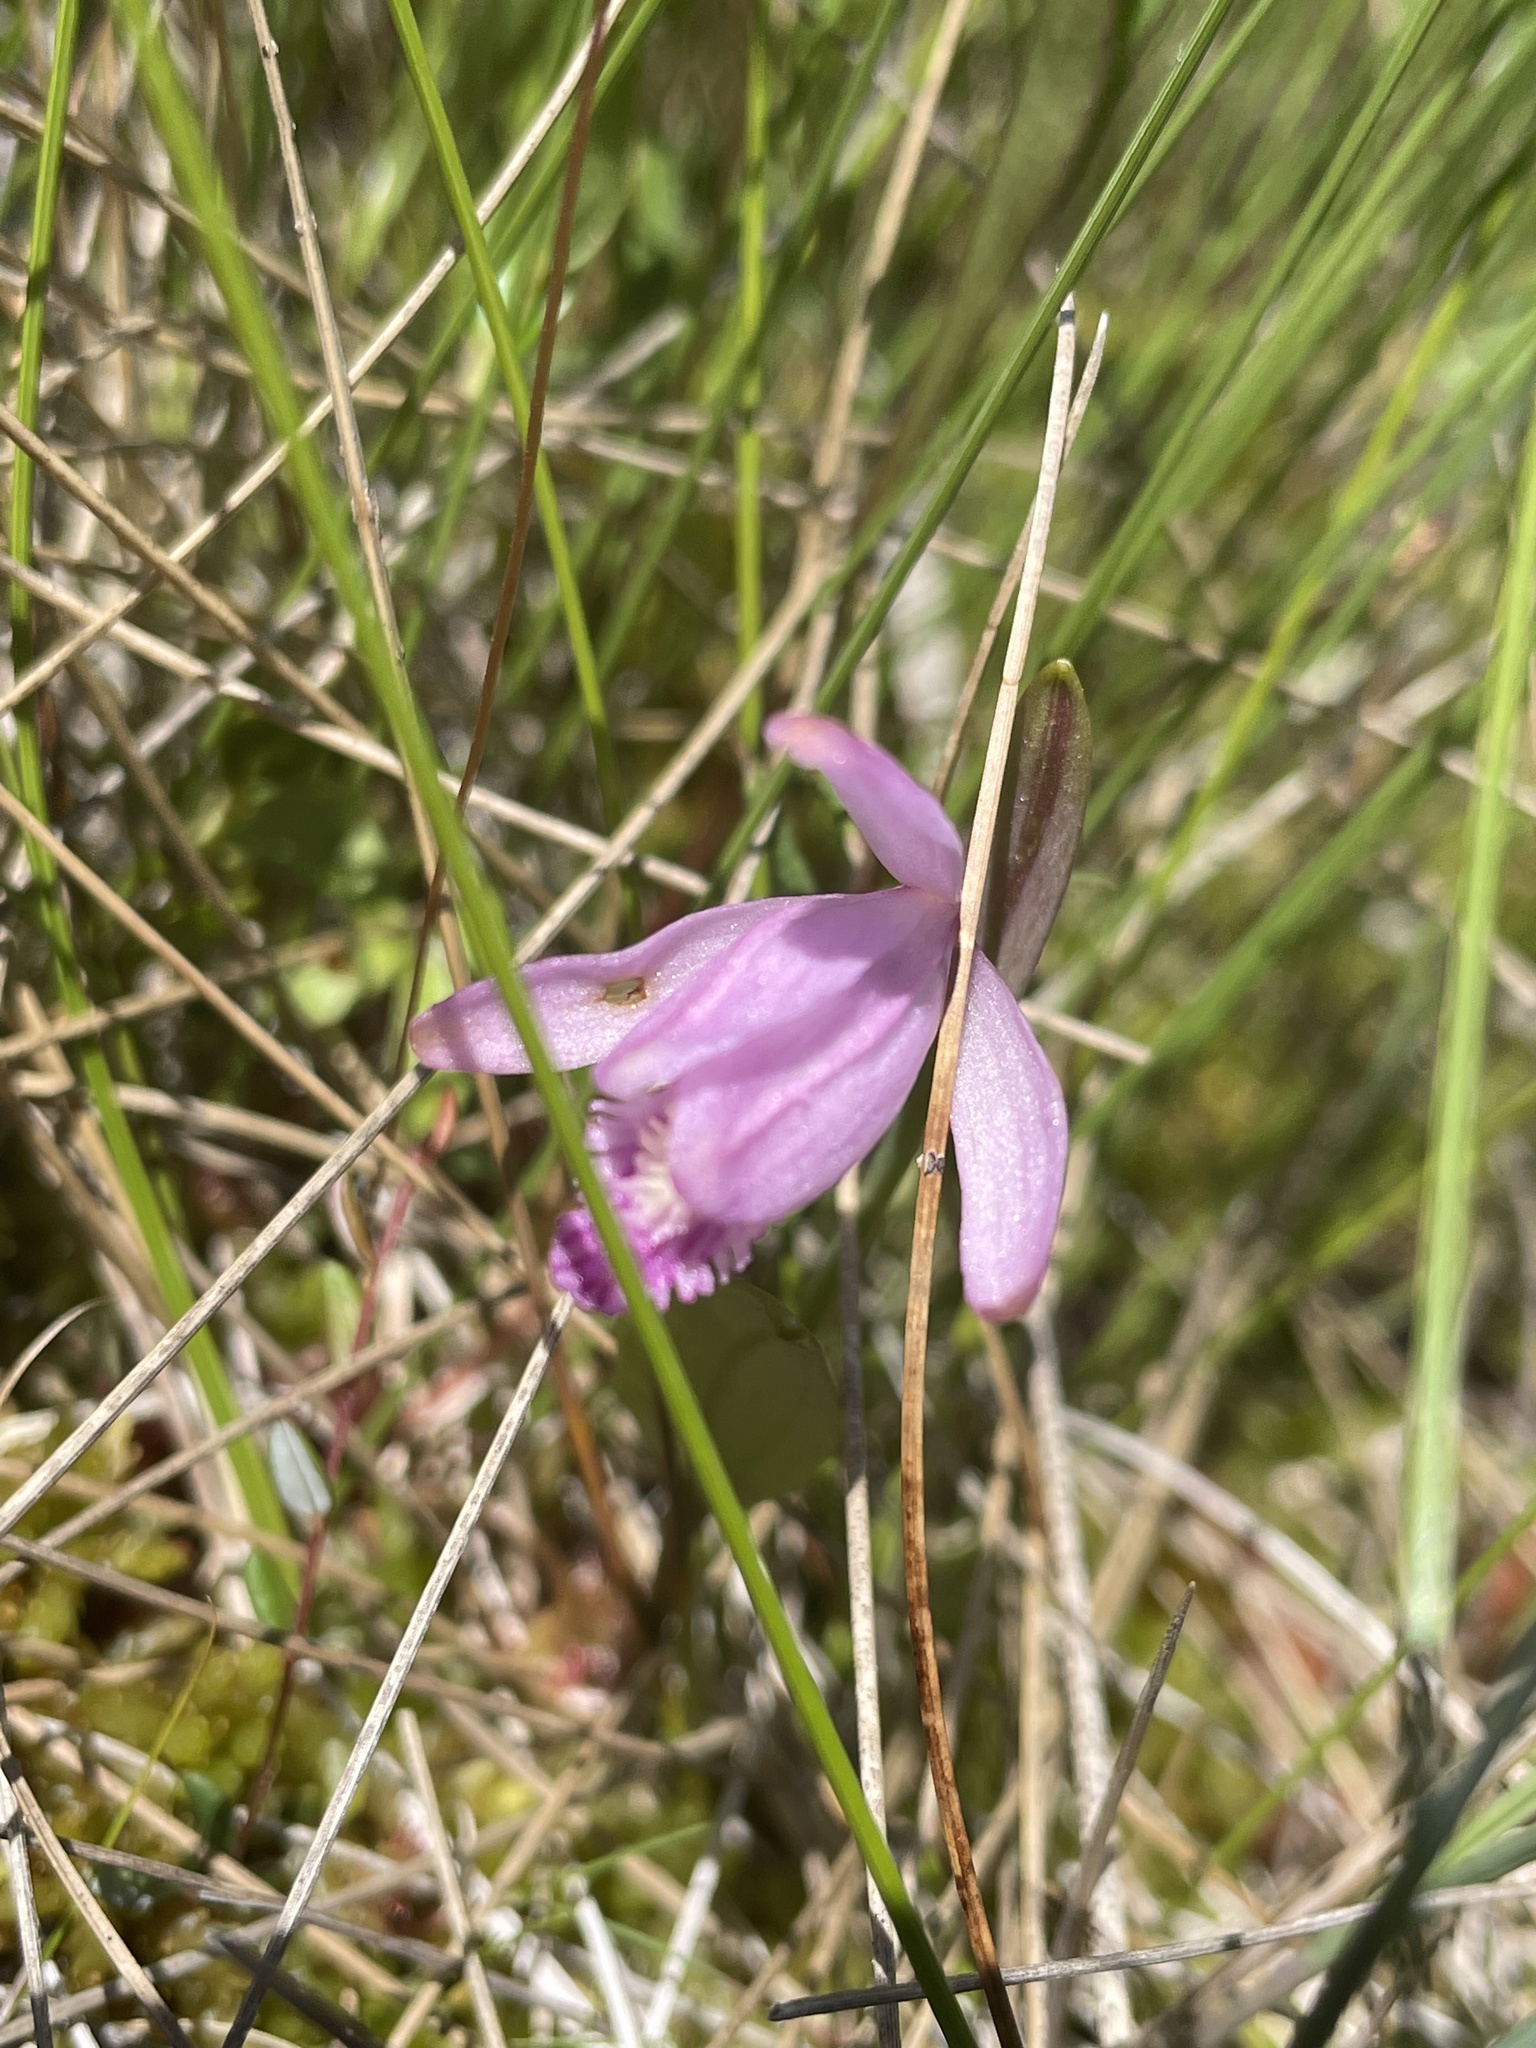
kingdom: Plantae
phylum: Tracheophyta
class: Liliopsida
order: Asparagales
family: Orchidaceae
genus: Pogonia
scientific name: Pogonia ophioglossoides
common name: Rose pogonia
